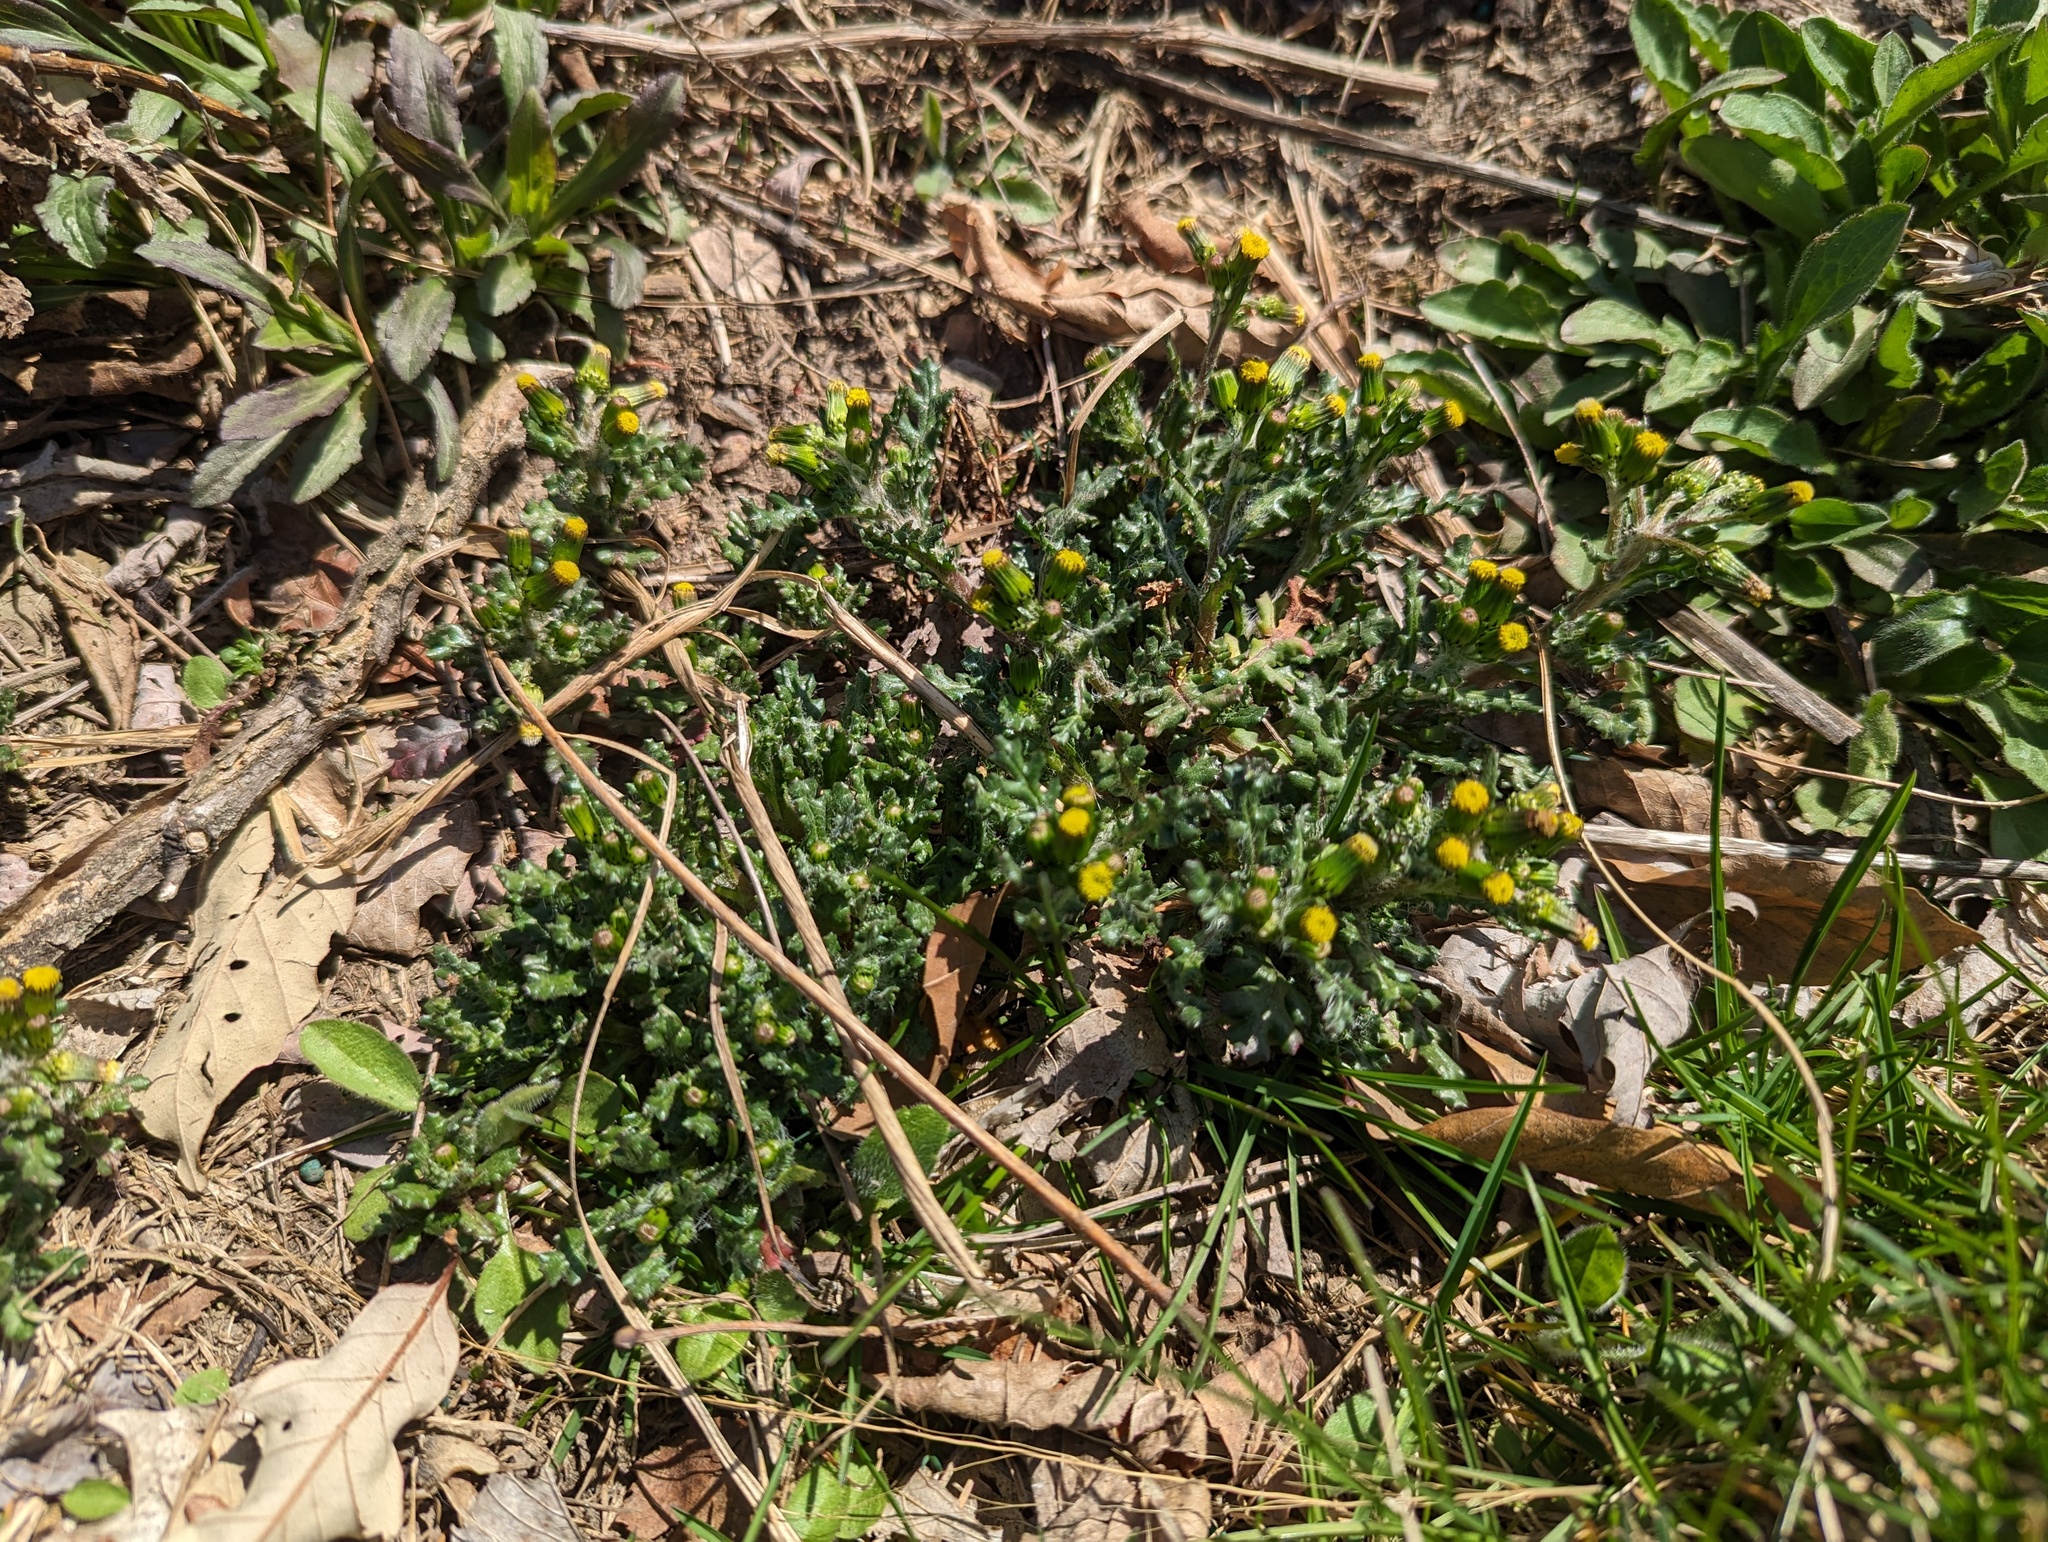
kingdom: Plantae
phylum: Tracheophyta
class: Magnoliopsida
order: Asterales
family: Asteraceae
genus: Senecio
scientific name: Senecio vulgaris
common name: Old-man-in-the-spring
